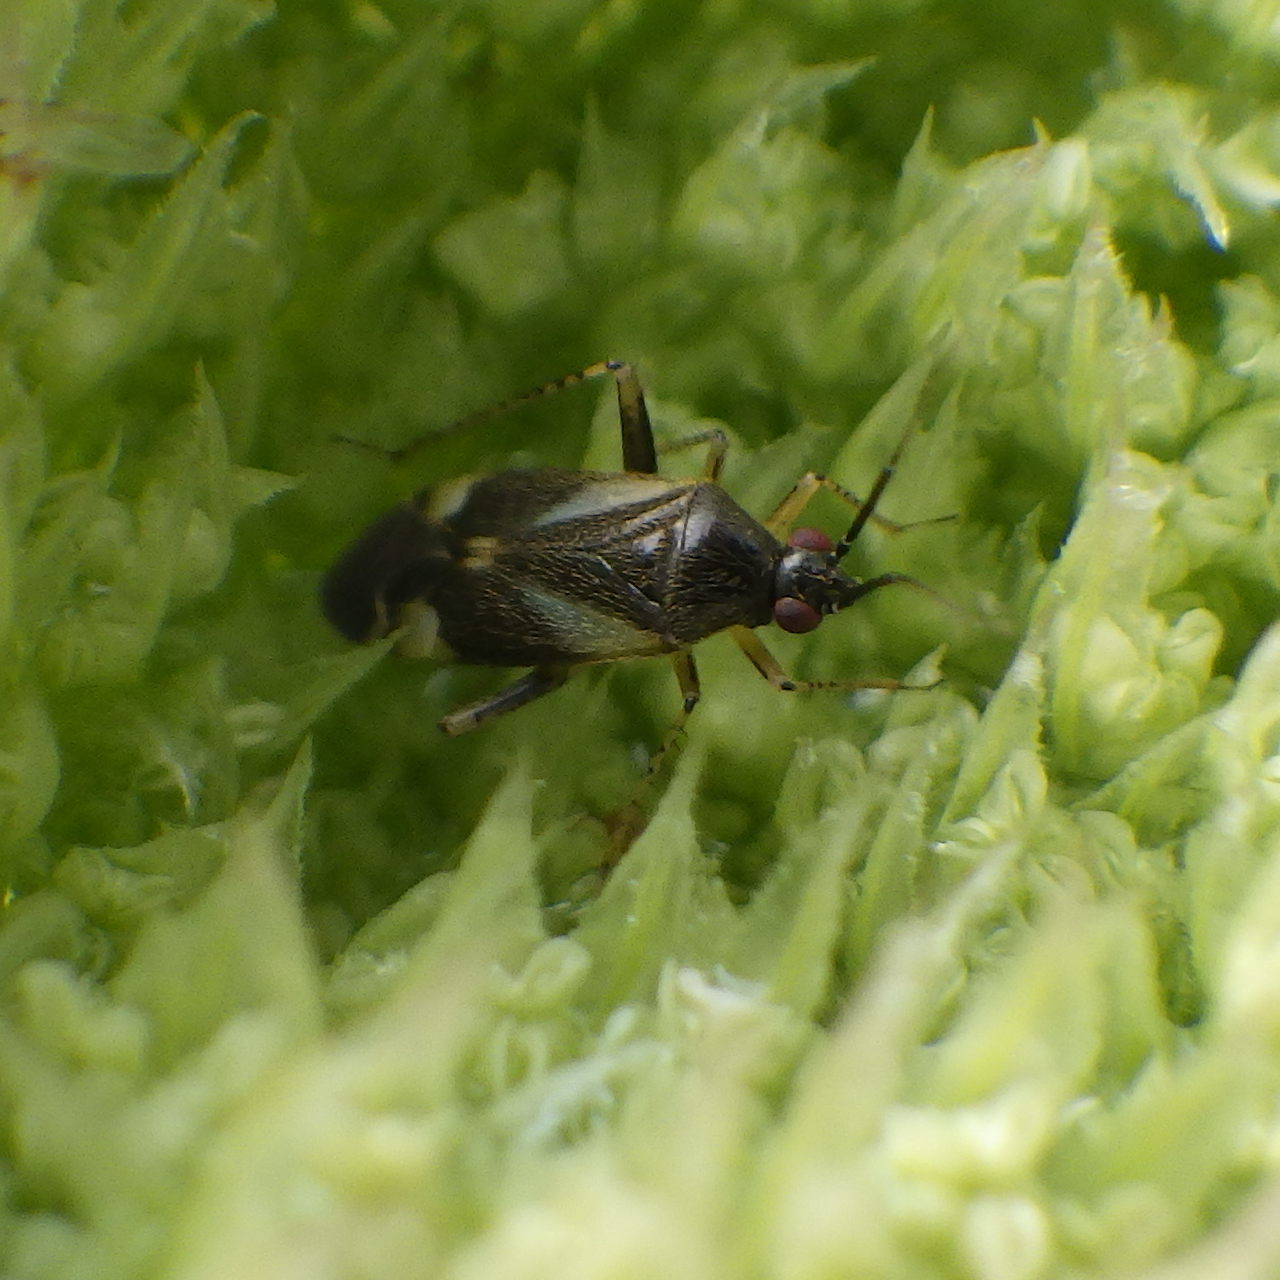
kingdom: Animalia
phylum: Arthropoda
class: Insecta
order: Hemiptera
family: Miridae
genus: Plagiognathus
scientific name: Plagiognathus obscurus
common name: Obscure plant bug
